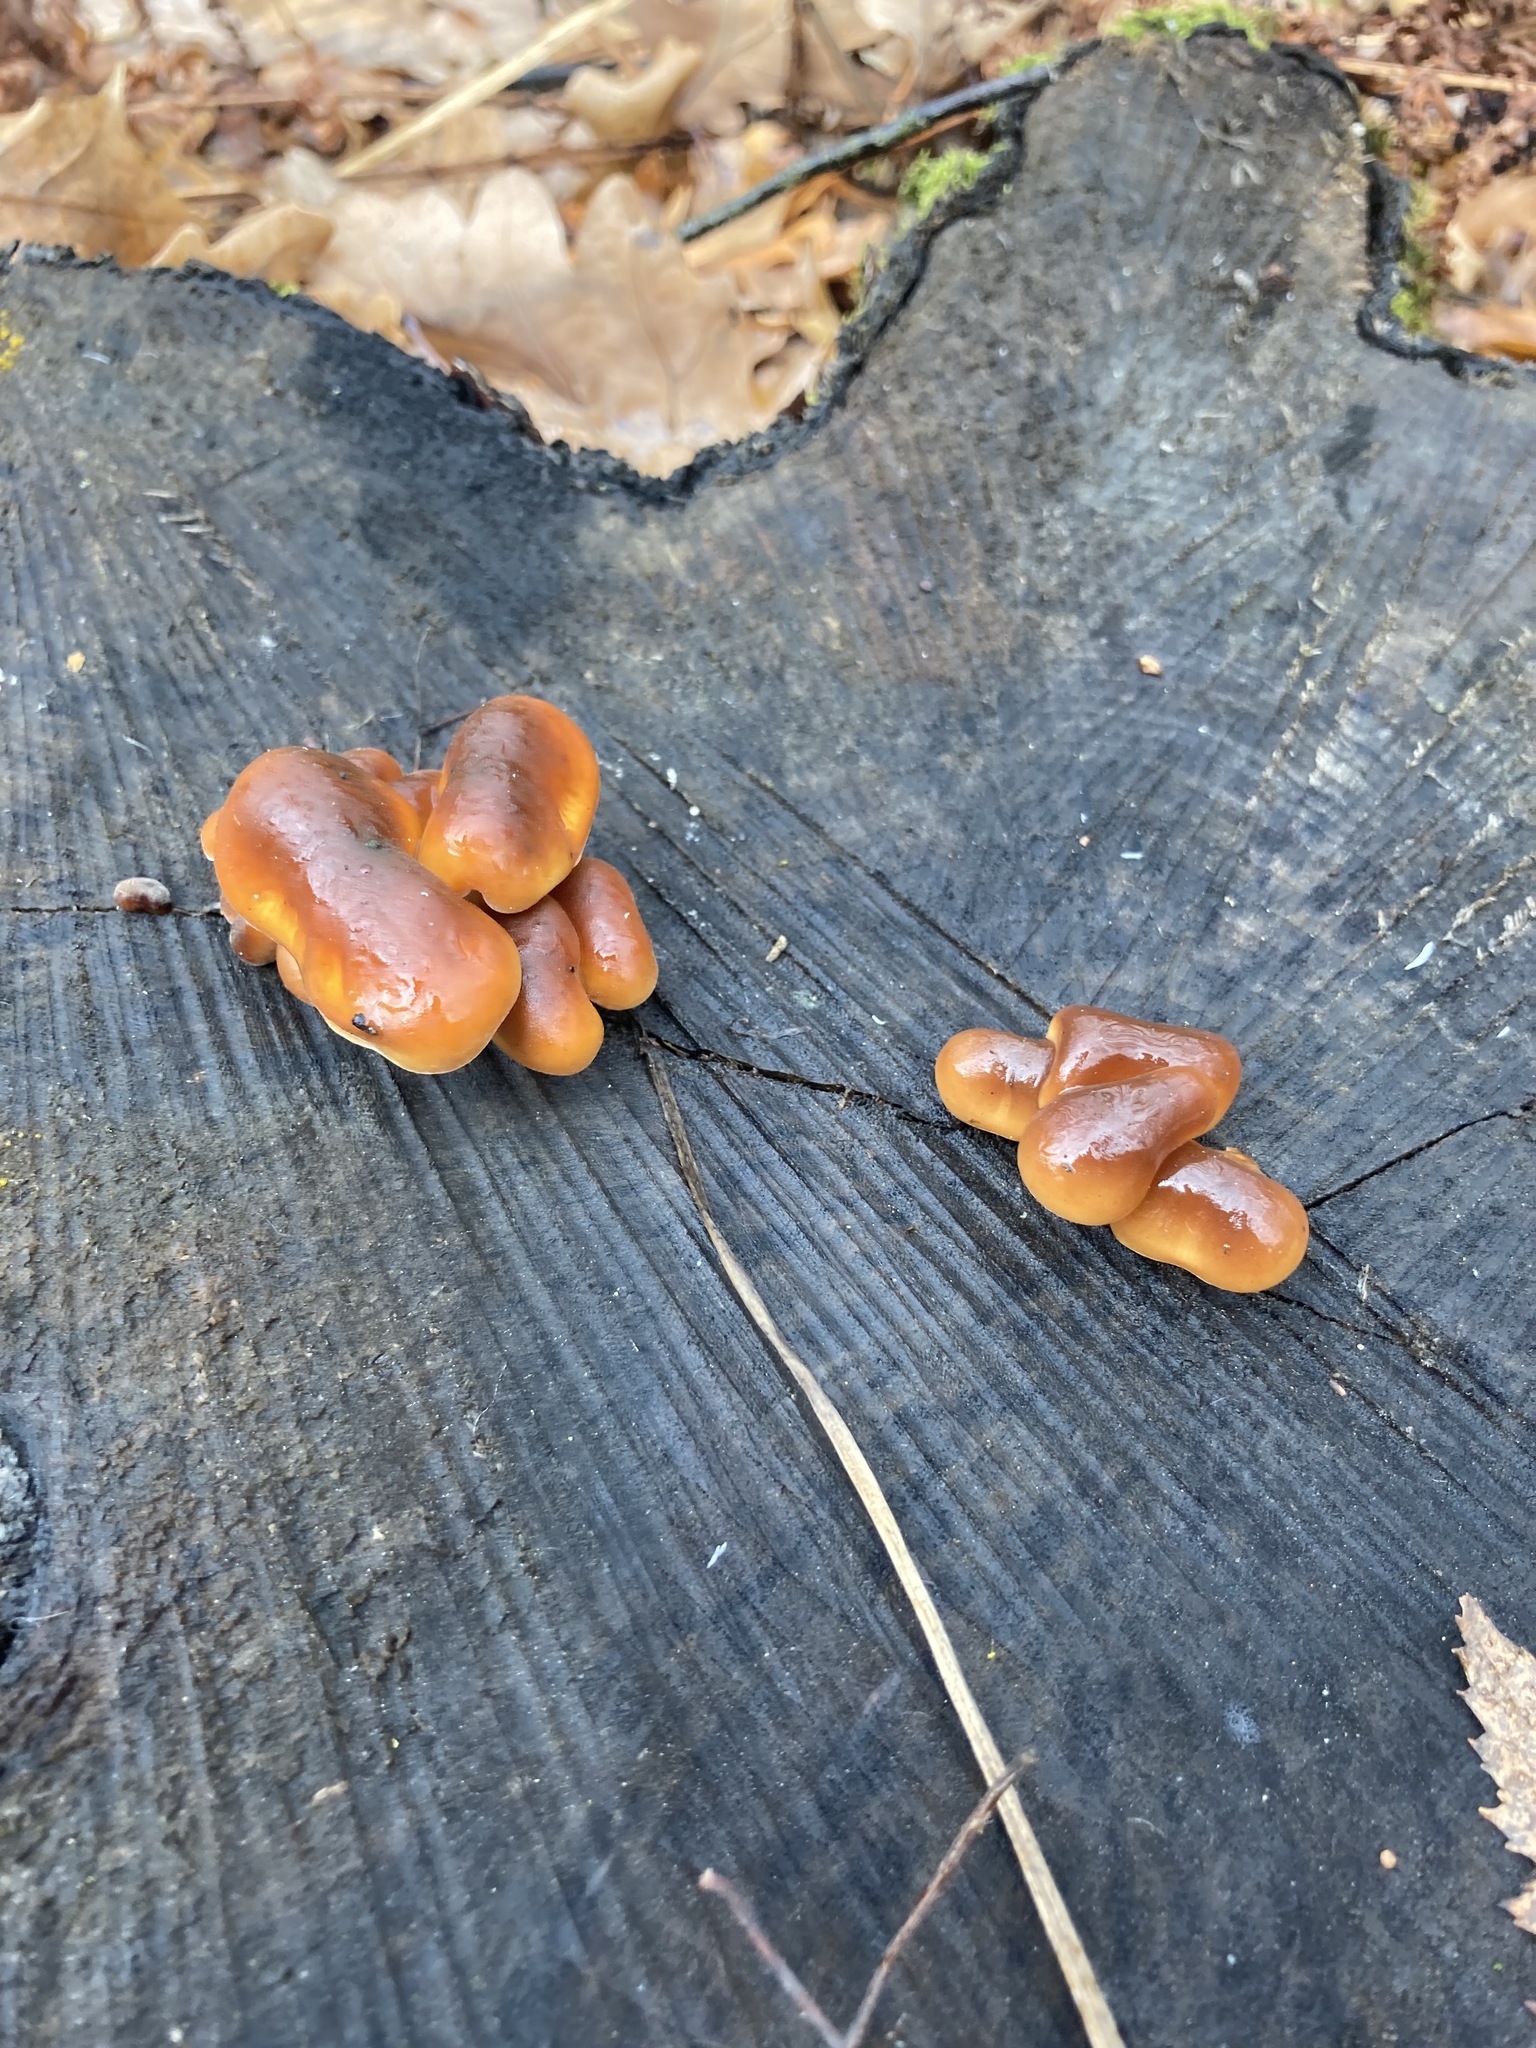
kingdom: Fungi
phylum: Basidiomycota
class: Agaricomycetes
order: Agaricales
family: Physalacriaceae
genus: Flammulina
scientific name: Flammulina
